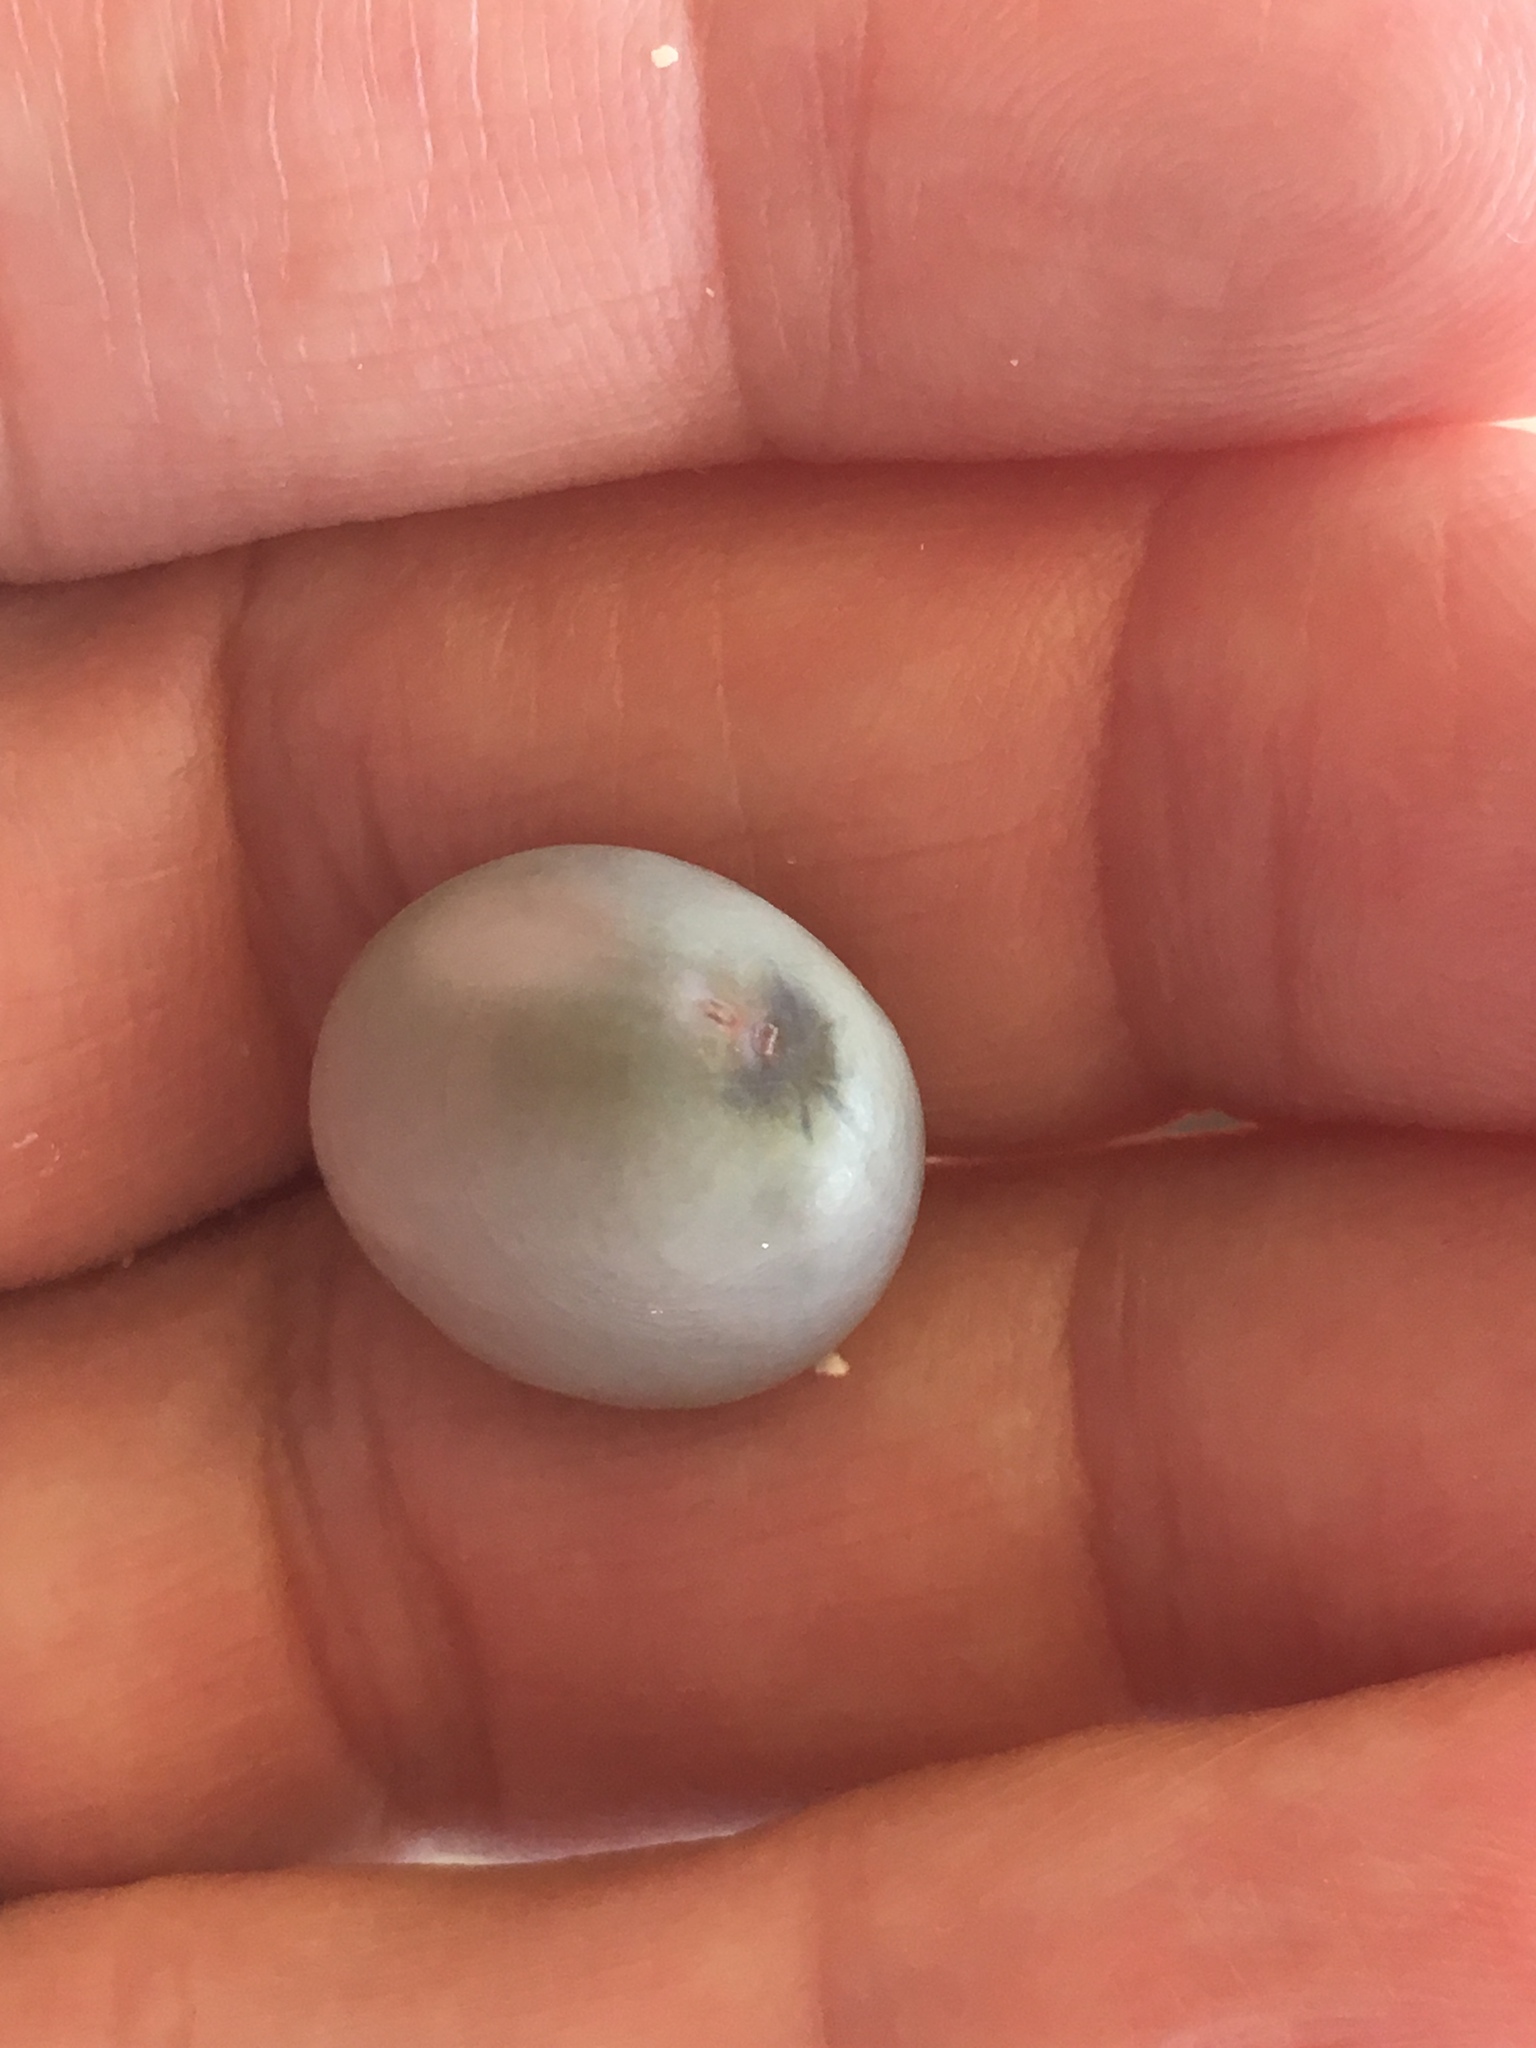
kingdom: Plantae
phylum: Tracheophyta
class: Magnoliopsida
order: Fabales
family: Fabaceae
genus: Guilandina
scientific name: Guilandina bonduc
